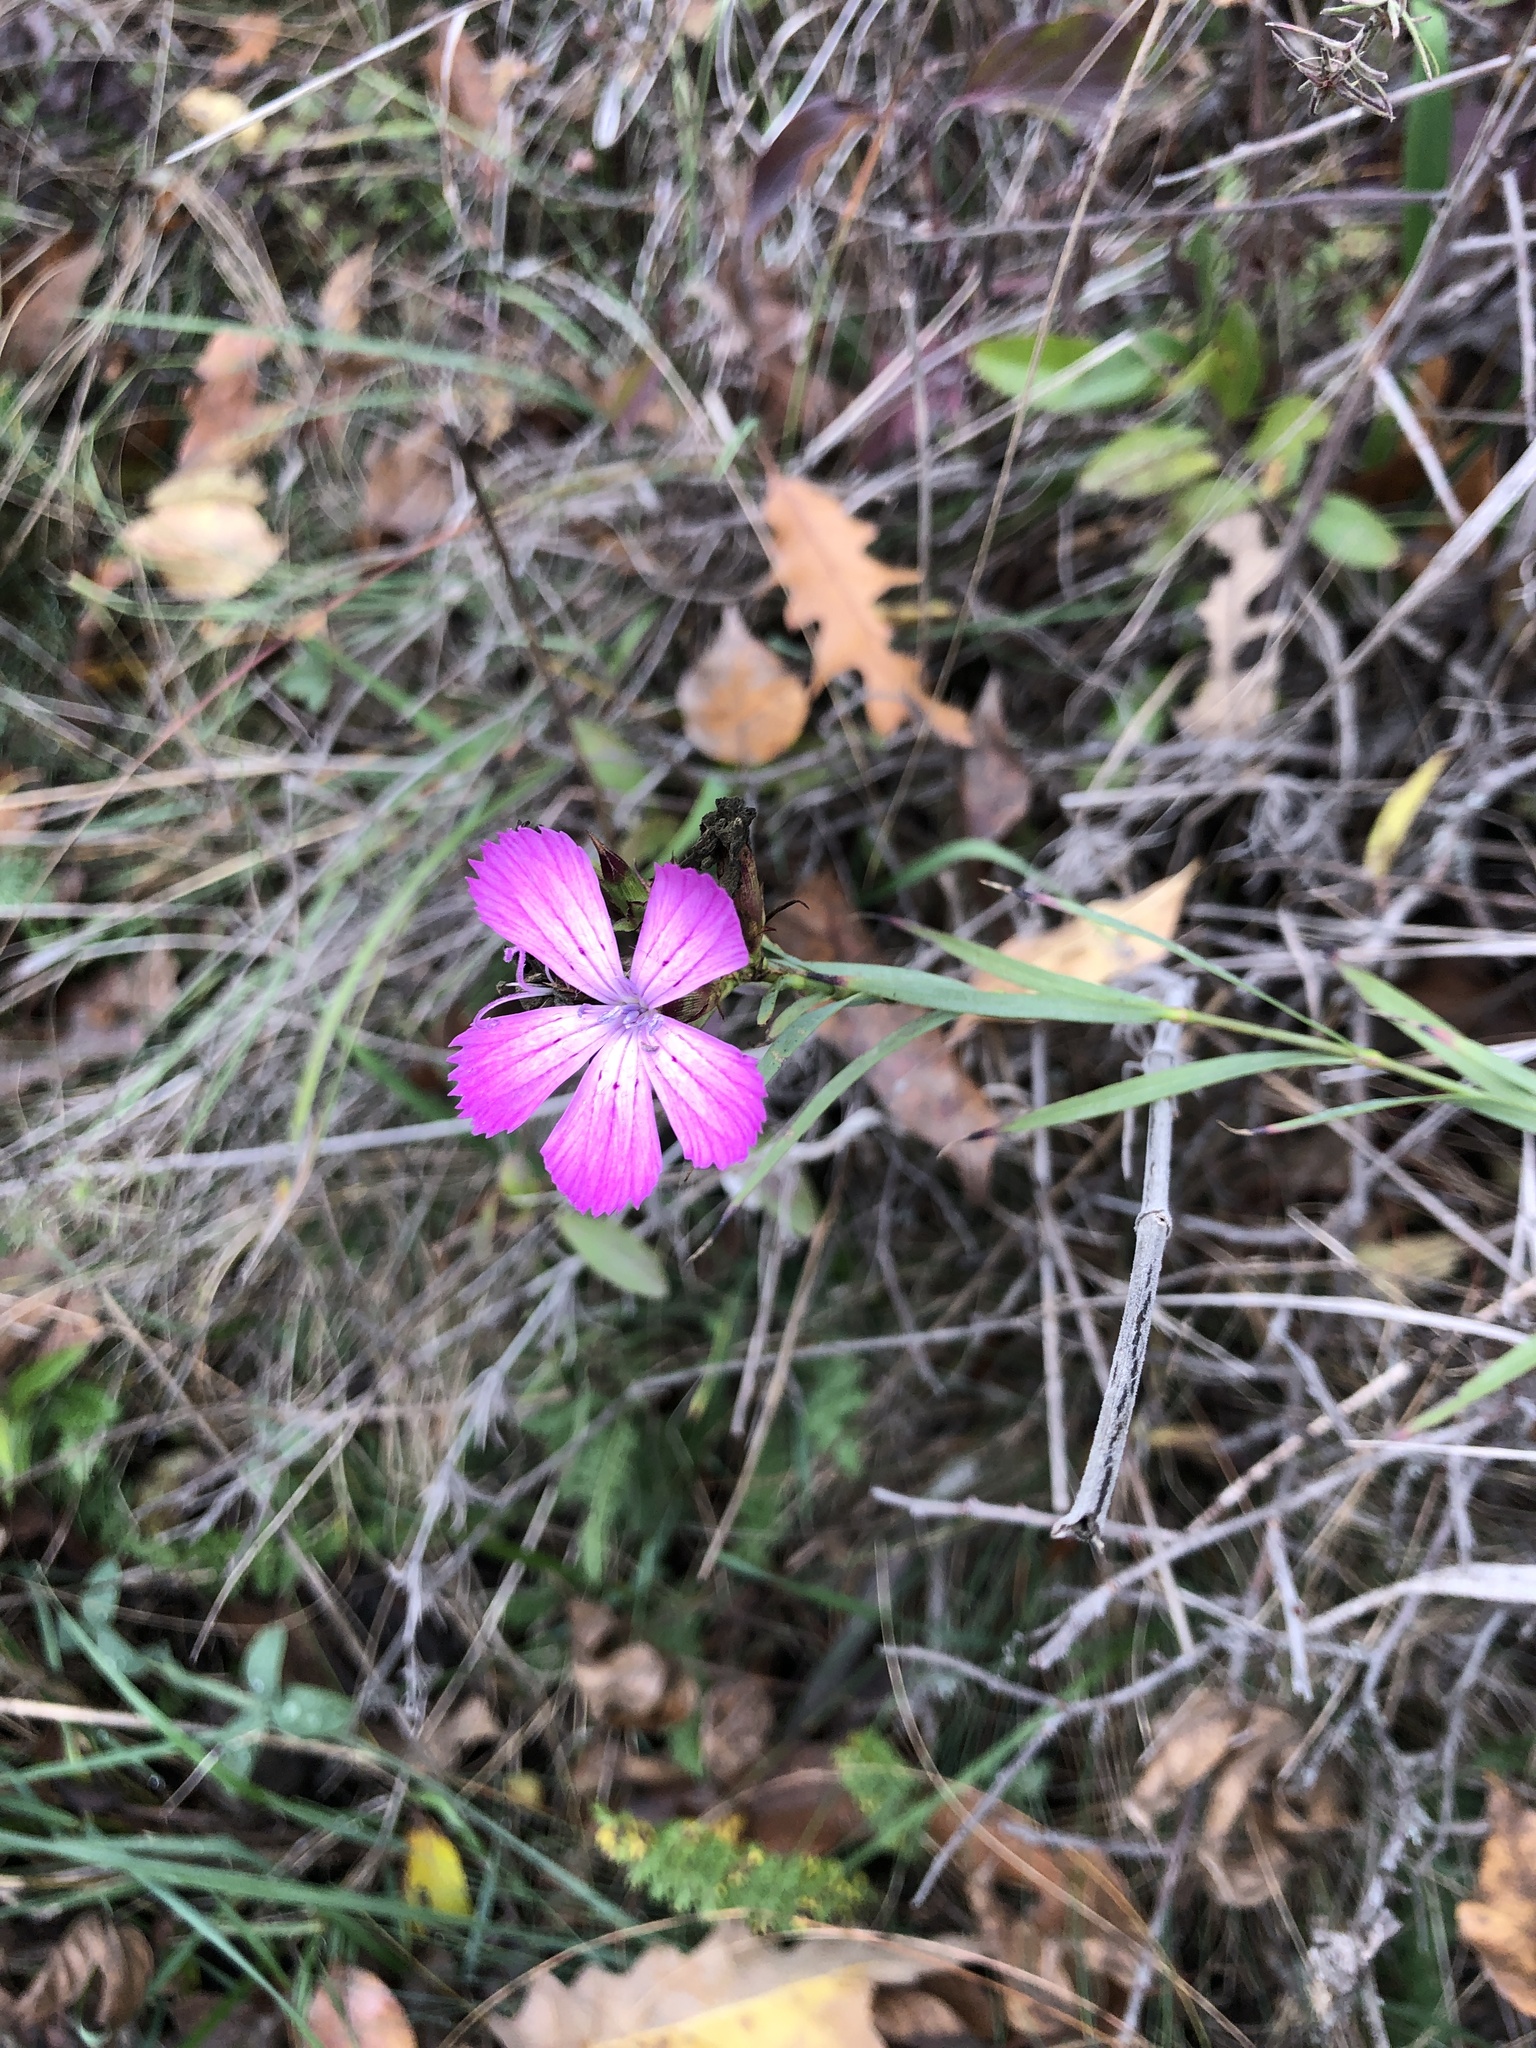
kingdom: Plantae
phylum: Tracheophyta
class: Magnoliopsida
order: Caryophyllales
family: Caryophyllaceae
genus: Dianthus
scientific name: Dianthus collinus
